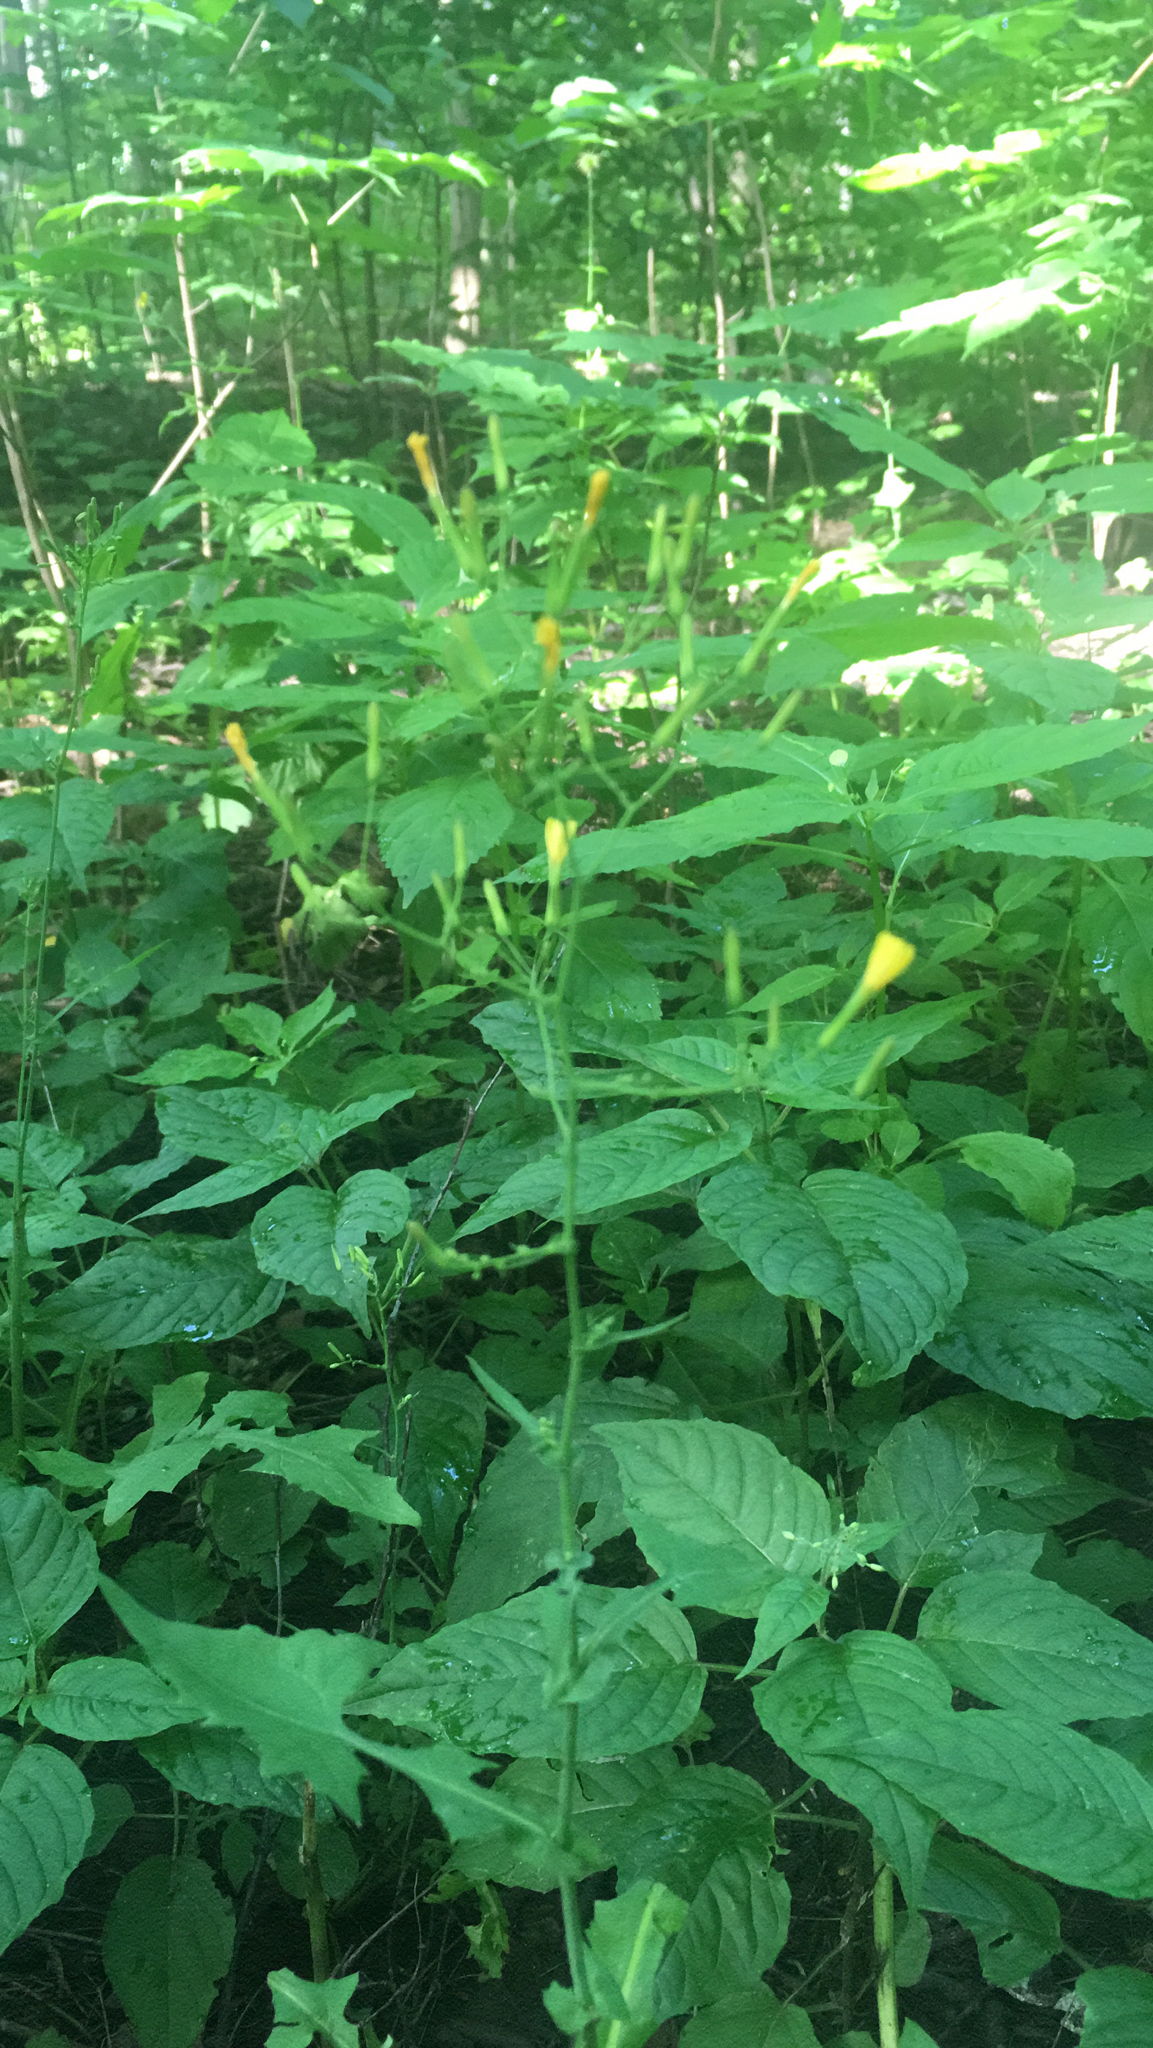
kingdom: Plantae
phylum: Tracheophyta
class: Magnoliopsida
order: Asterales
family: Asteraceae
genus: Mycelis
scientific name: Mycelis muralis
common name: Wall lettuce
